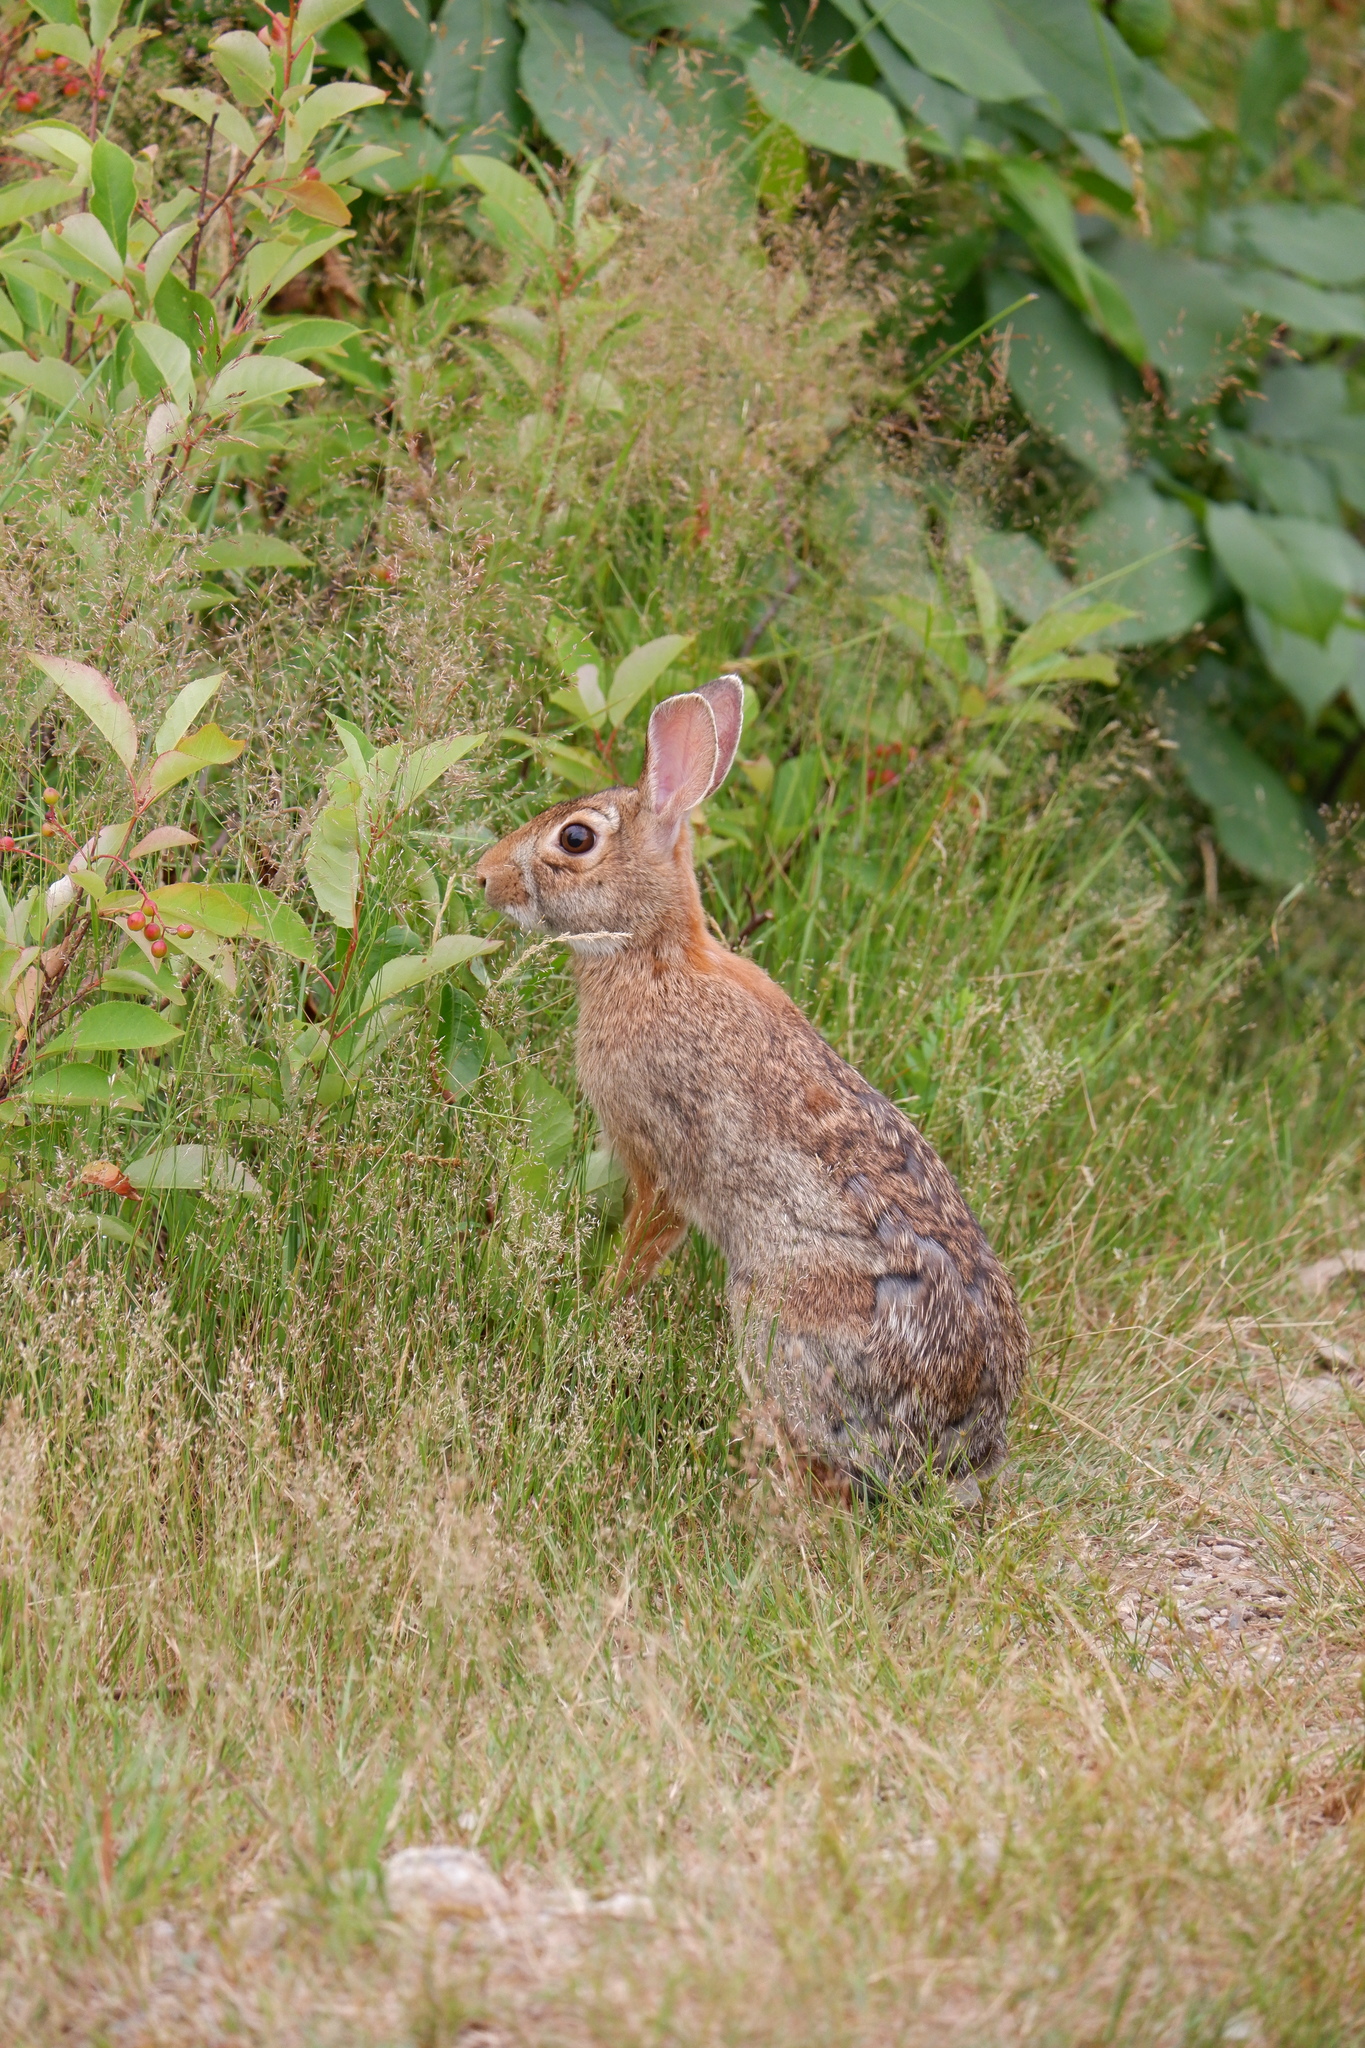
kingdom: Animalia
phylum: Chordata
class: Mammalia
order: Lagomorpha
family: Leporidae
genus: Sylvilagus
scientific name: Sylvilagus floridanus
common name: Eastern cottontail
